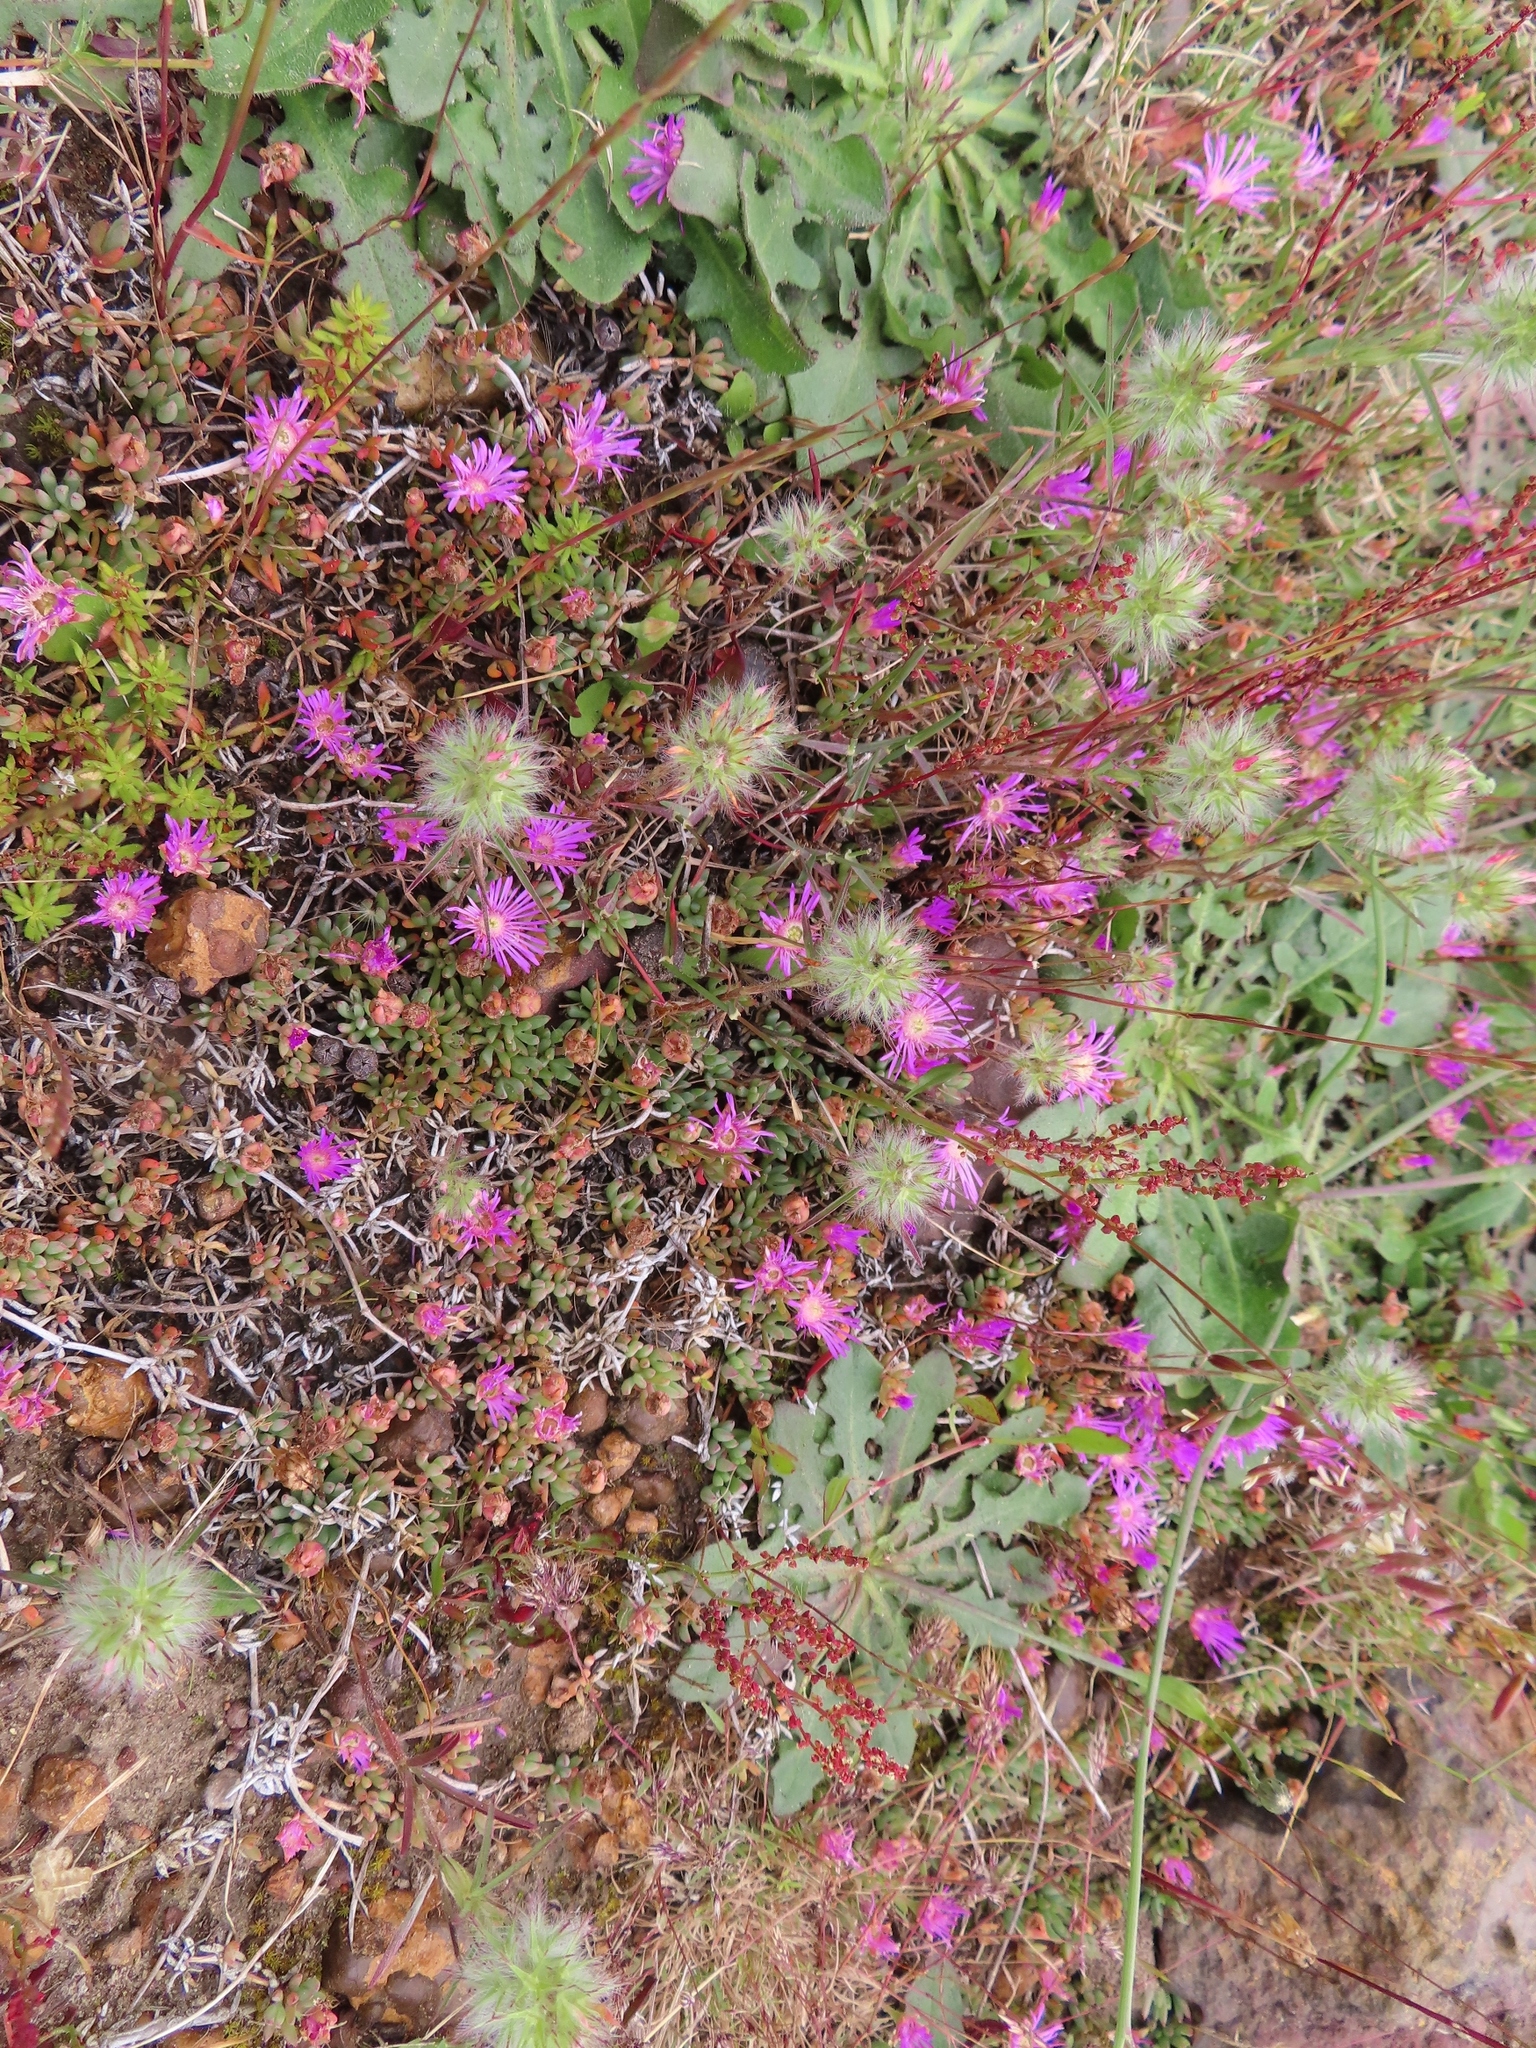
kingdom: Plantae
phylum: Tracheophyta
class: Magnoliopsida
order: Caryophyllales
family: Aizoaceae
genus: Lampranthus
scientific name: Lampranthus debilis
